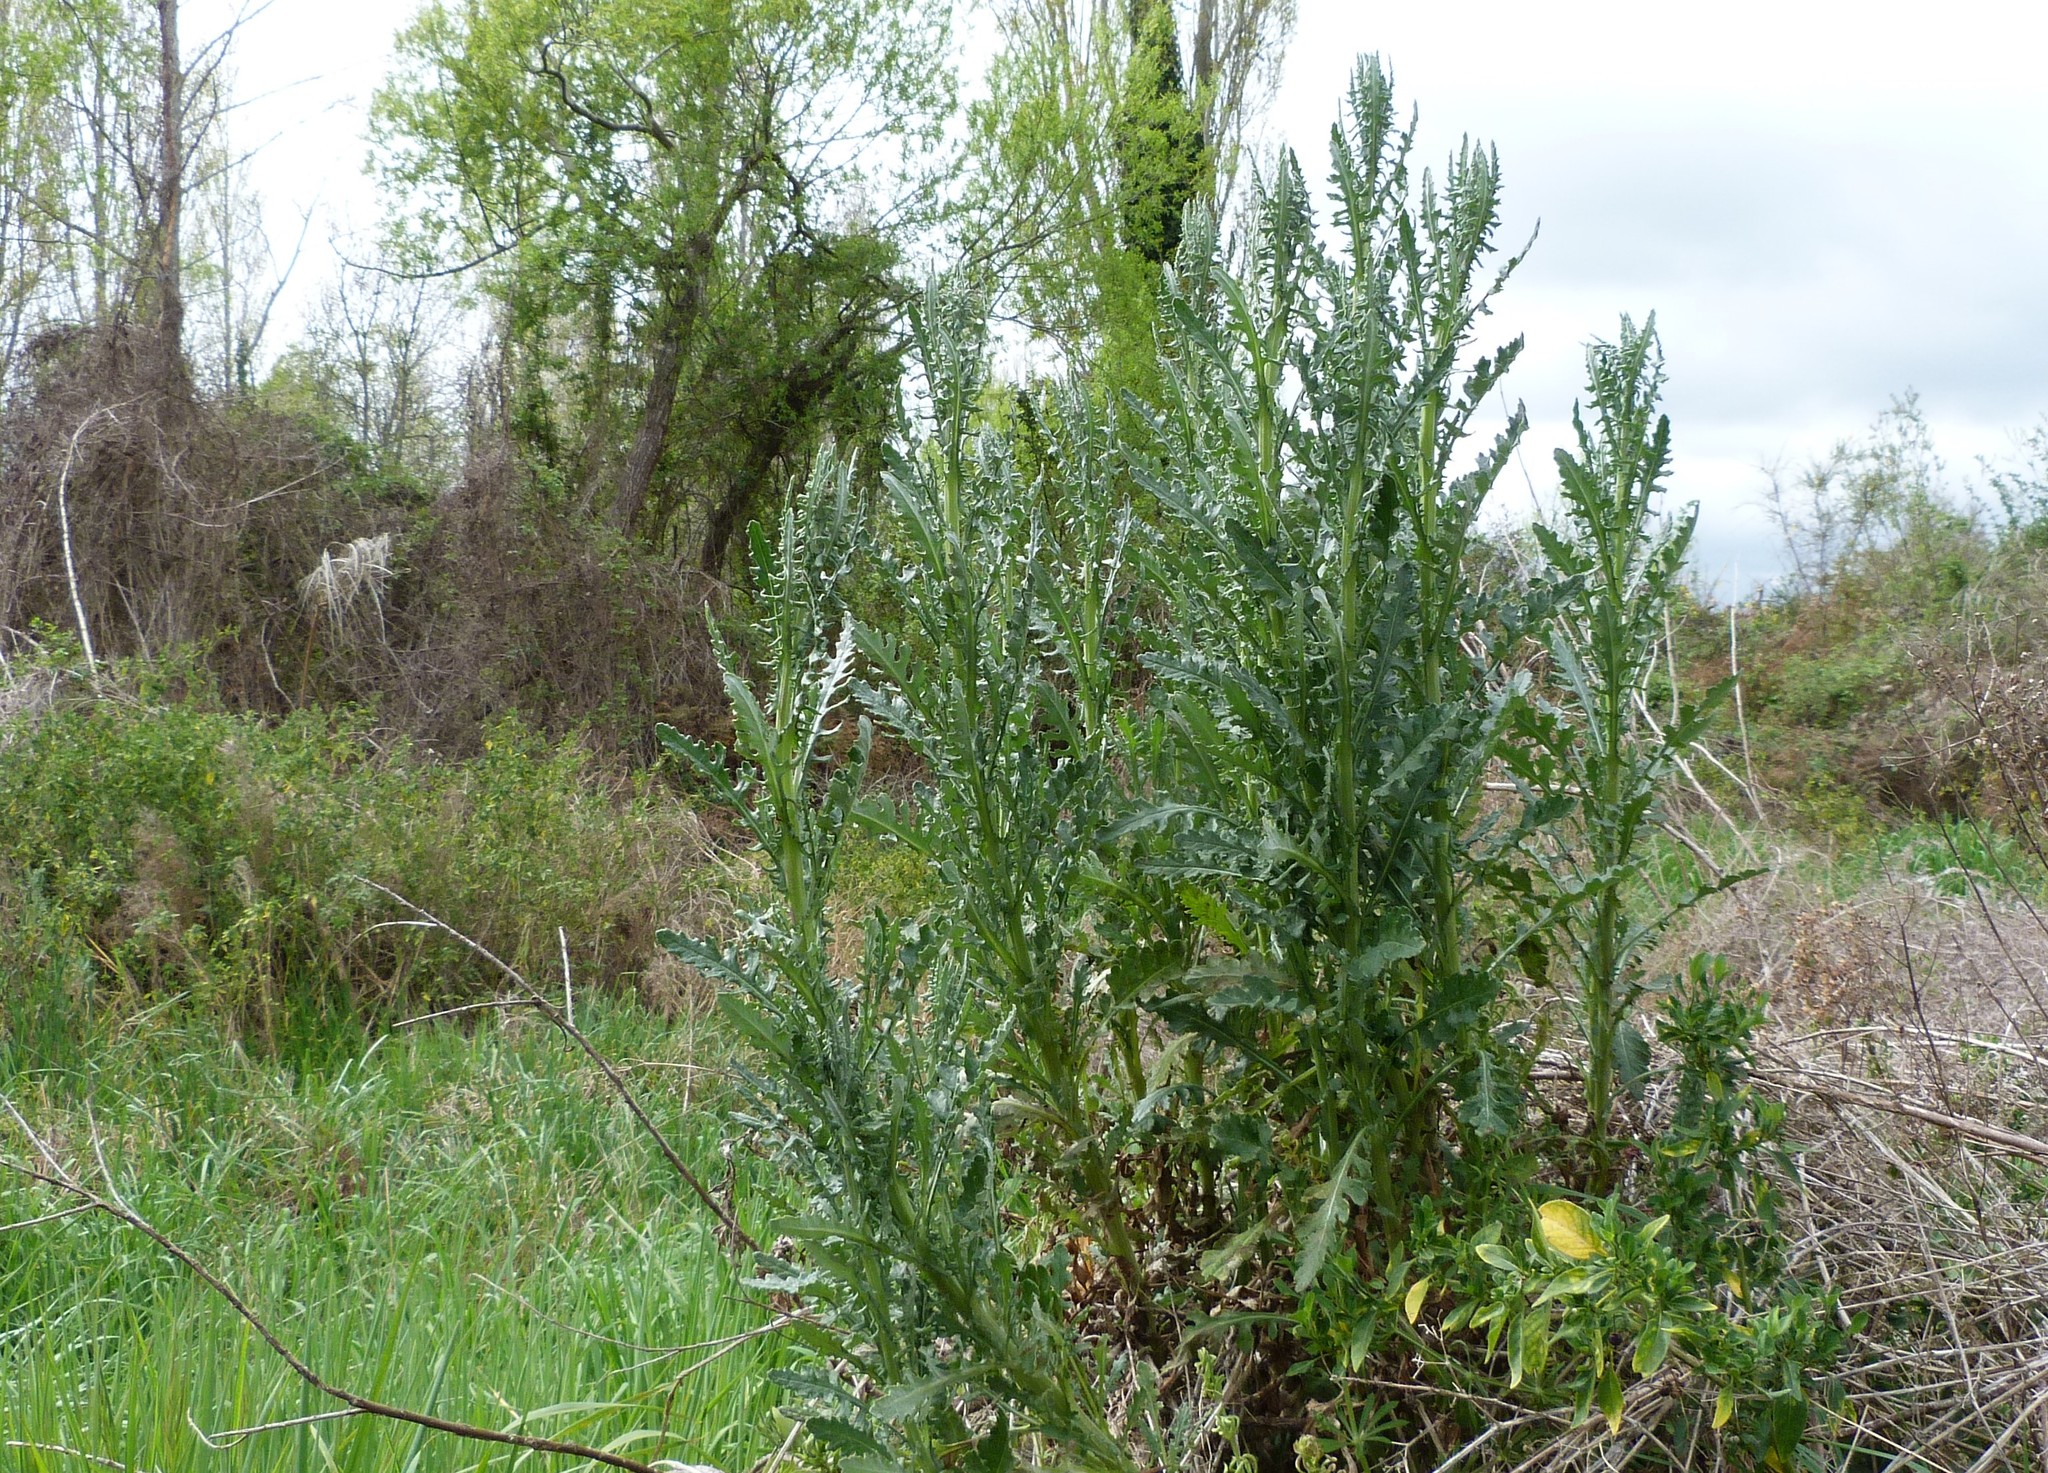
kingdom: Plantae
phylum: Tracheophyta
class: Magnoliopsida
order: Asterales
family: Asteraceae
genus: Senecio
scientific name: Senecio glomeratus
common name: Cutleaf burnweed
